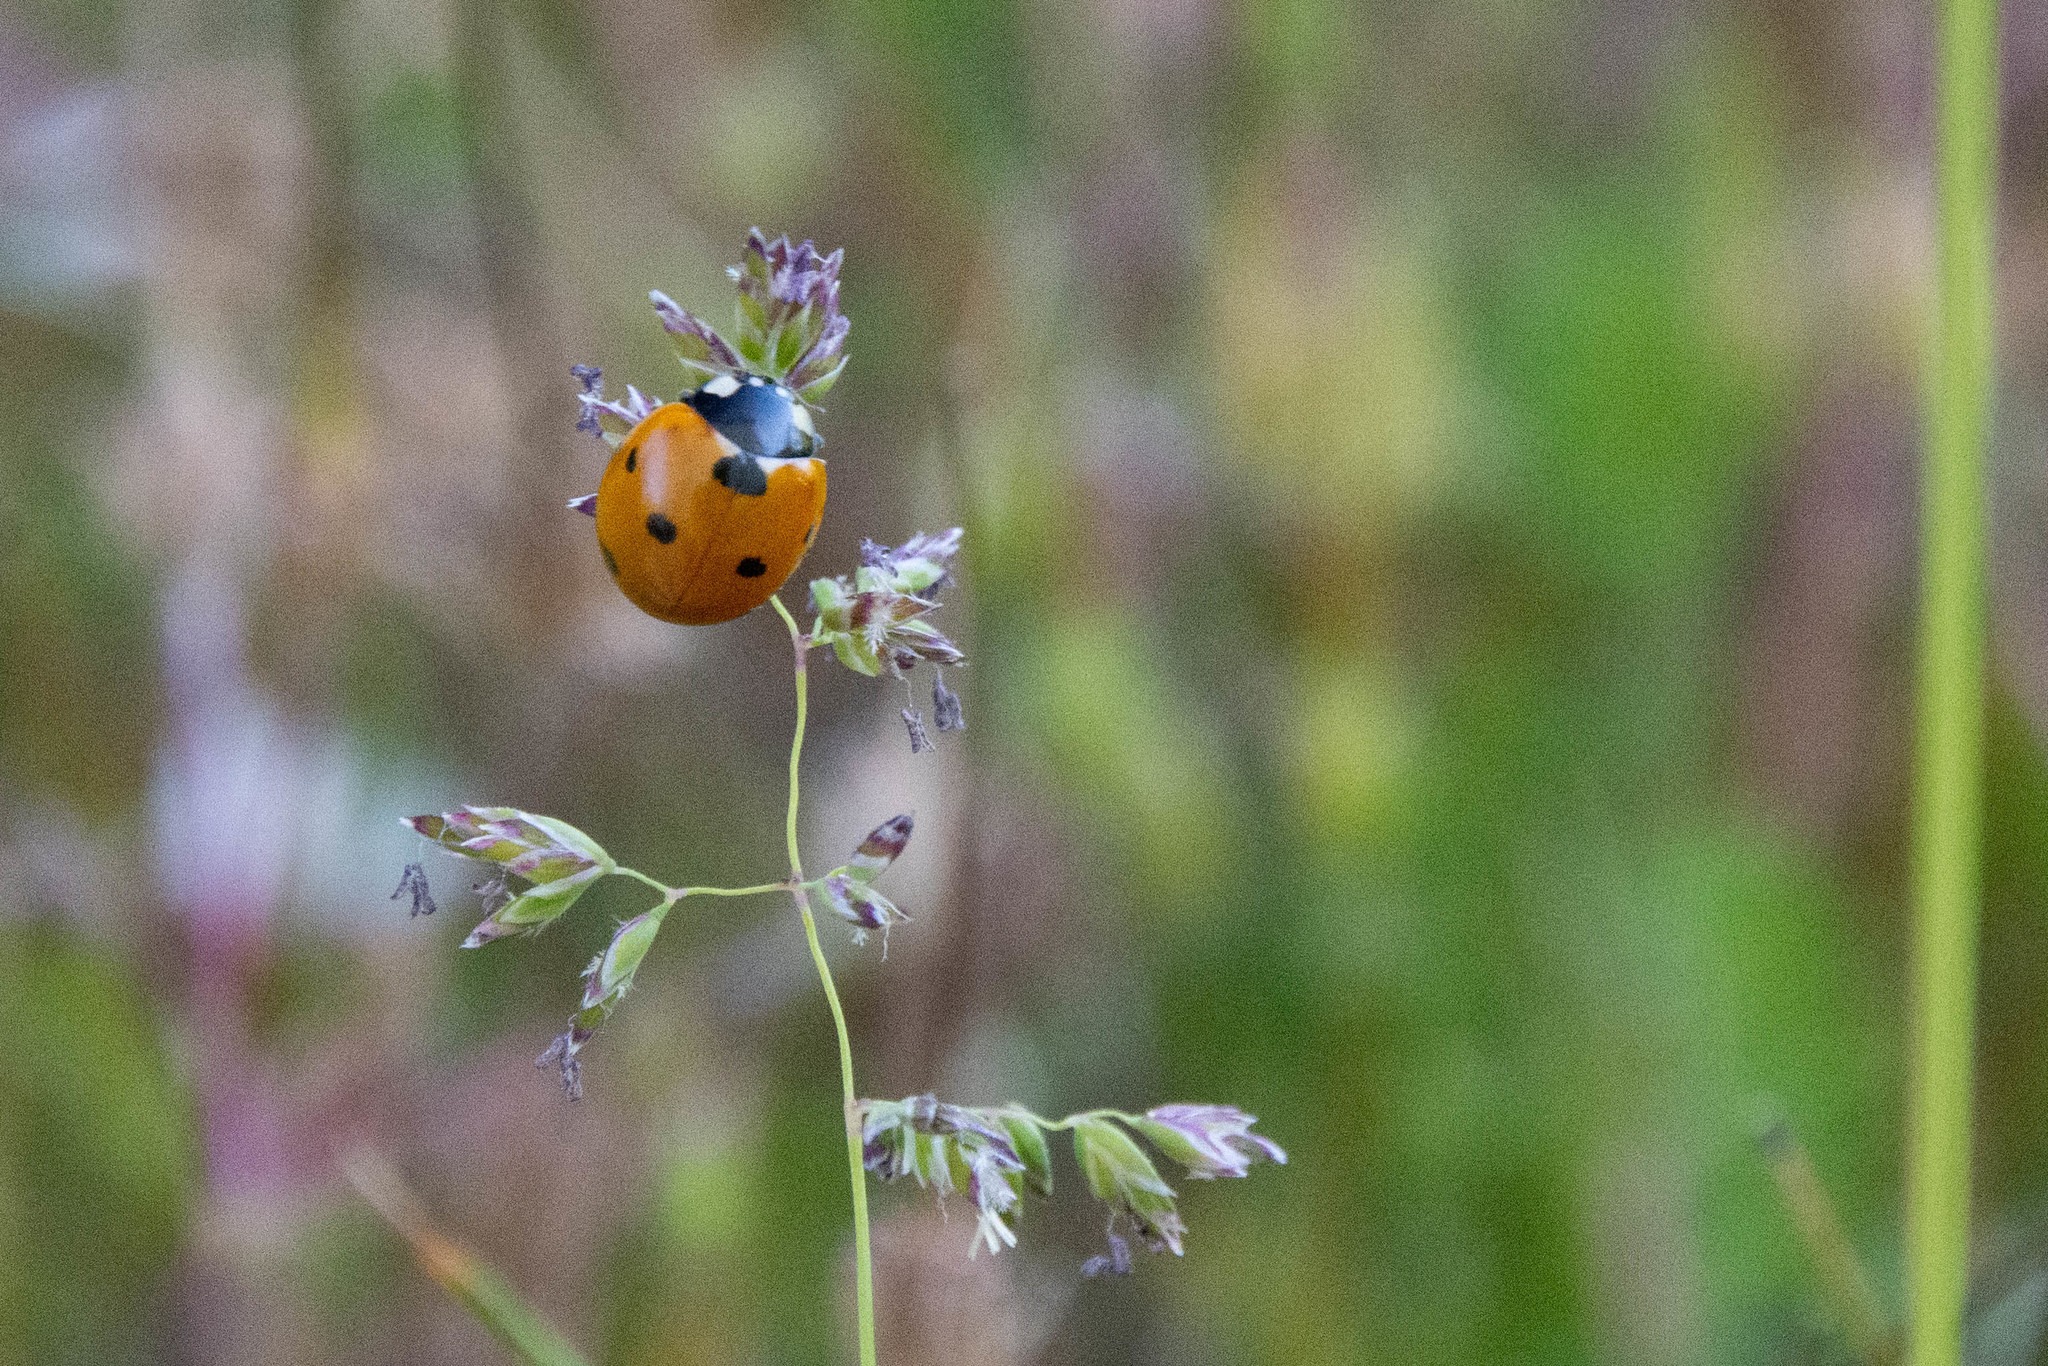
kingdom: Animalia
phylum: Arthropoda
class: Insecta
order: Coleoptera
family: Coccinellidae
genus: Coccinella
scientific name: Coccinella septempunctata
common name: Sevenspotted lady beetle
